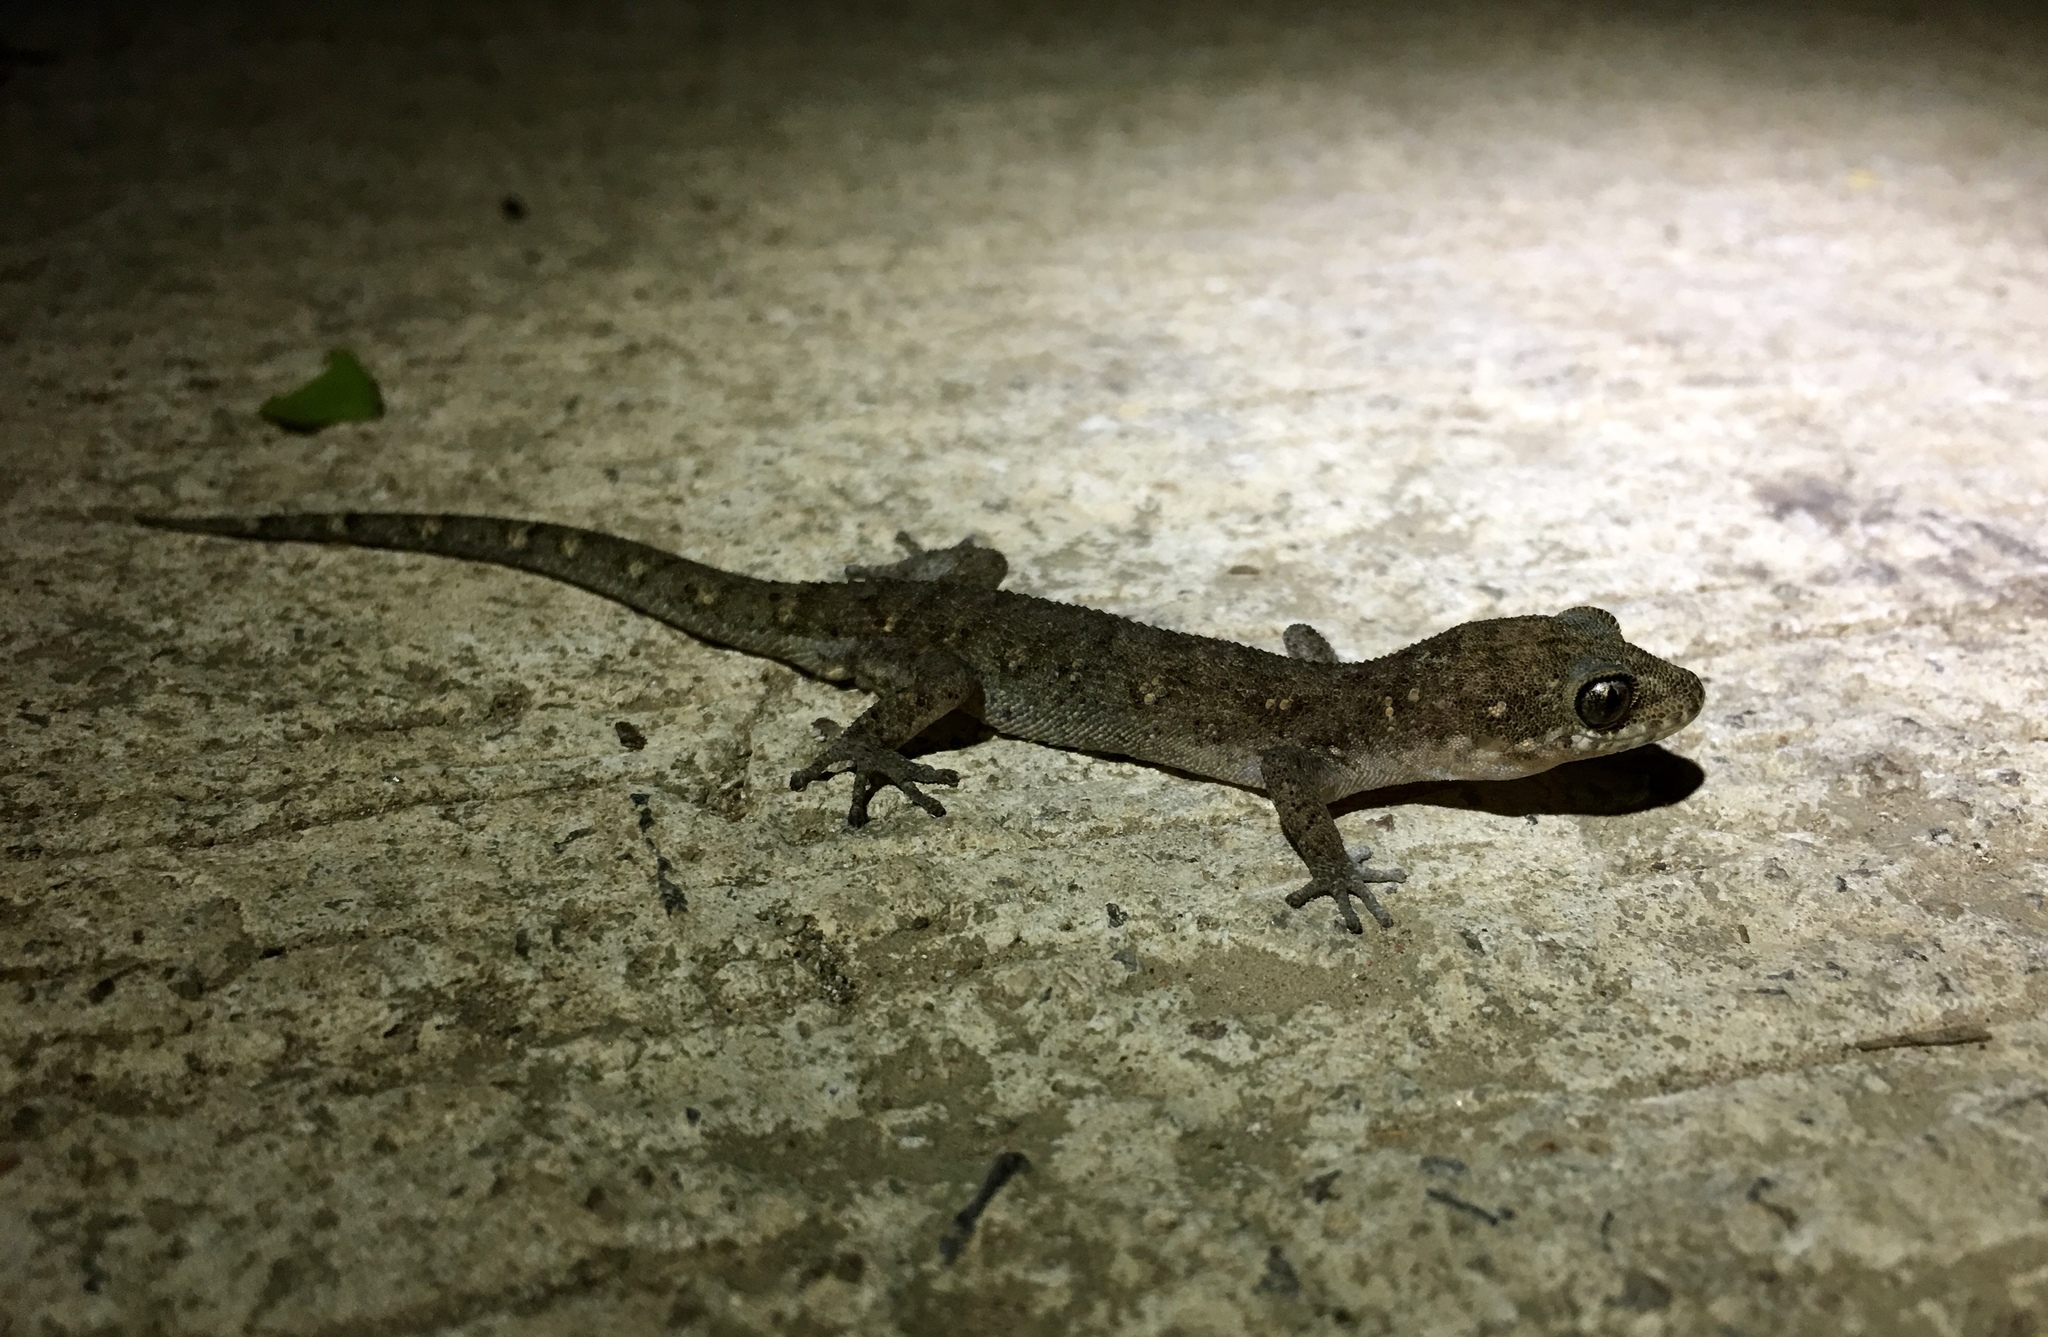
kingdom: Animalia
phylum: Chordata
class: Squamata
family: Gekkonidae
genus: Dixonius
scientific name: Dixonius siamensis
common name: Siamese leaf-toed gecko
